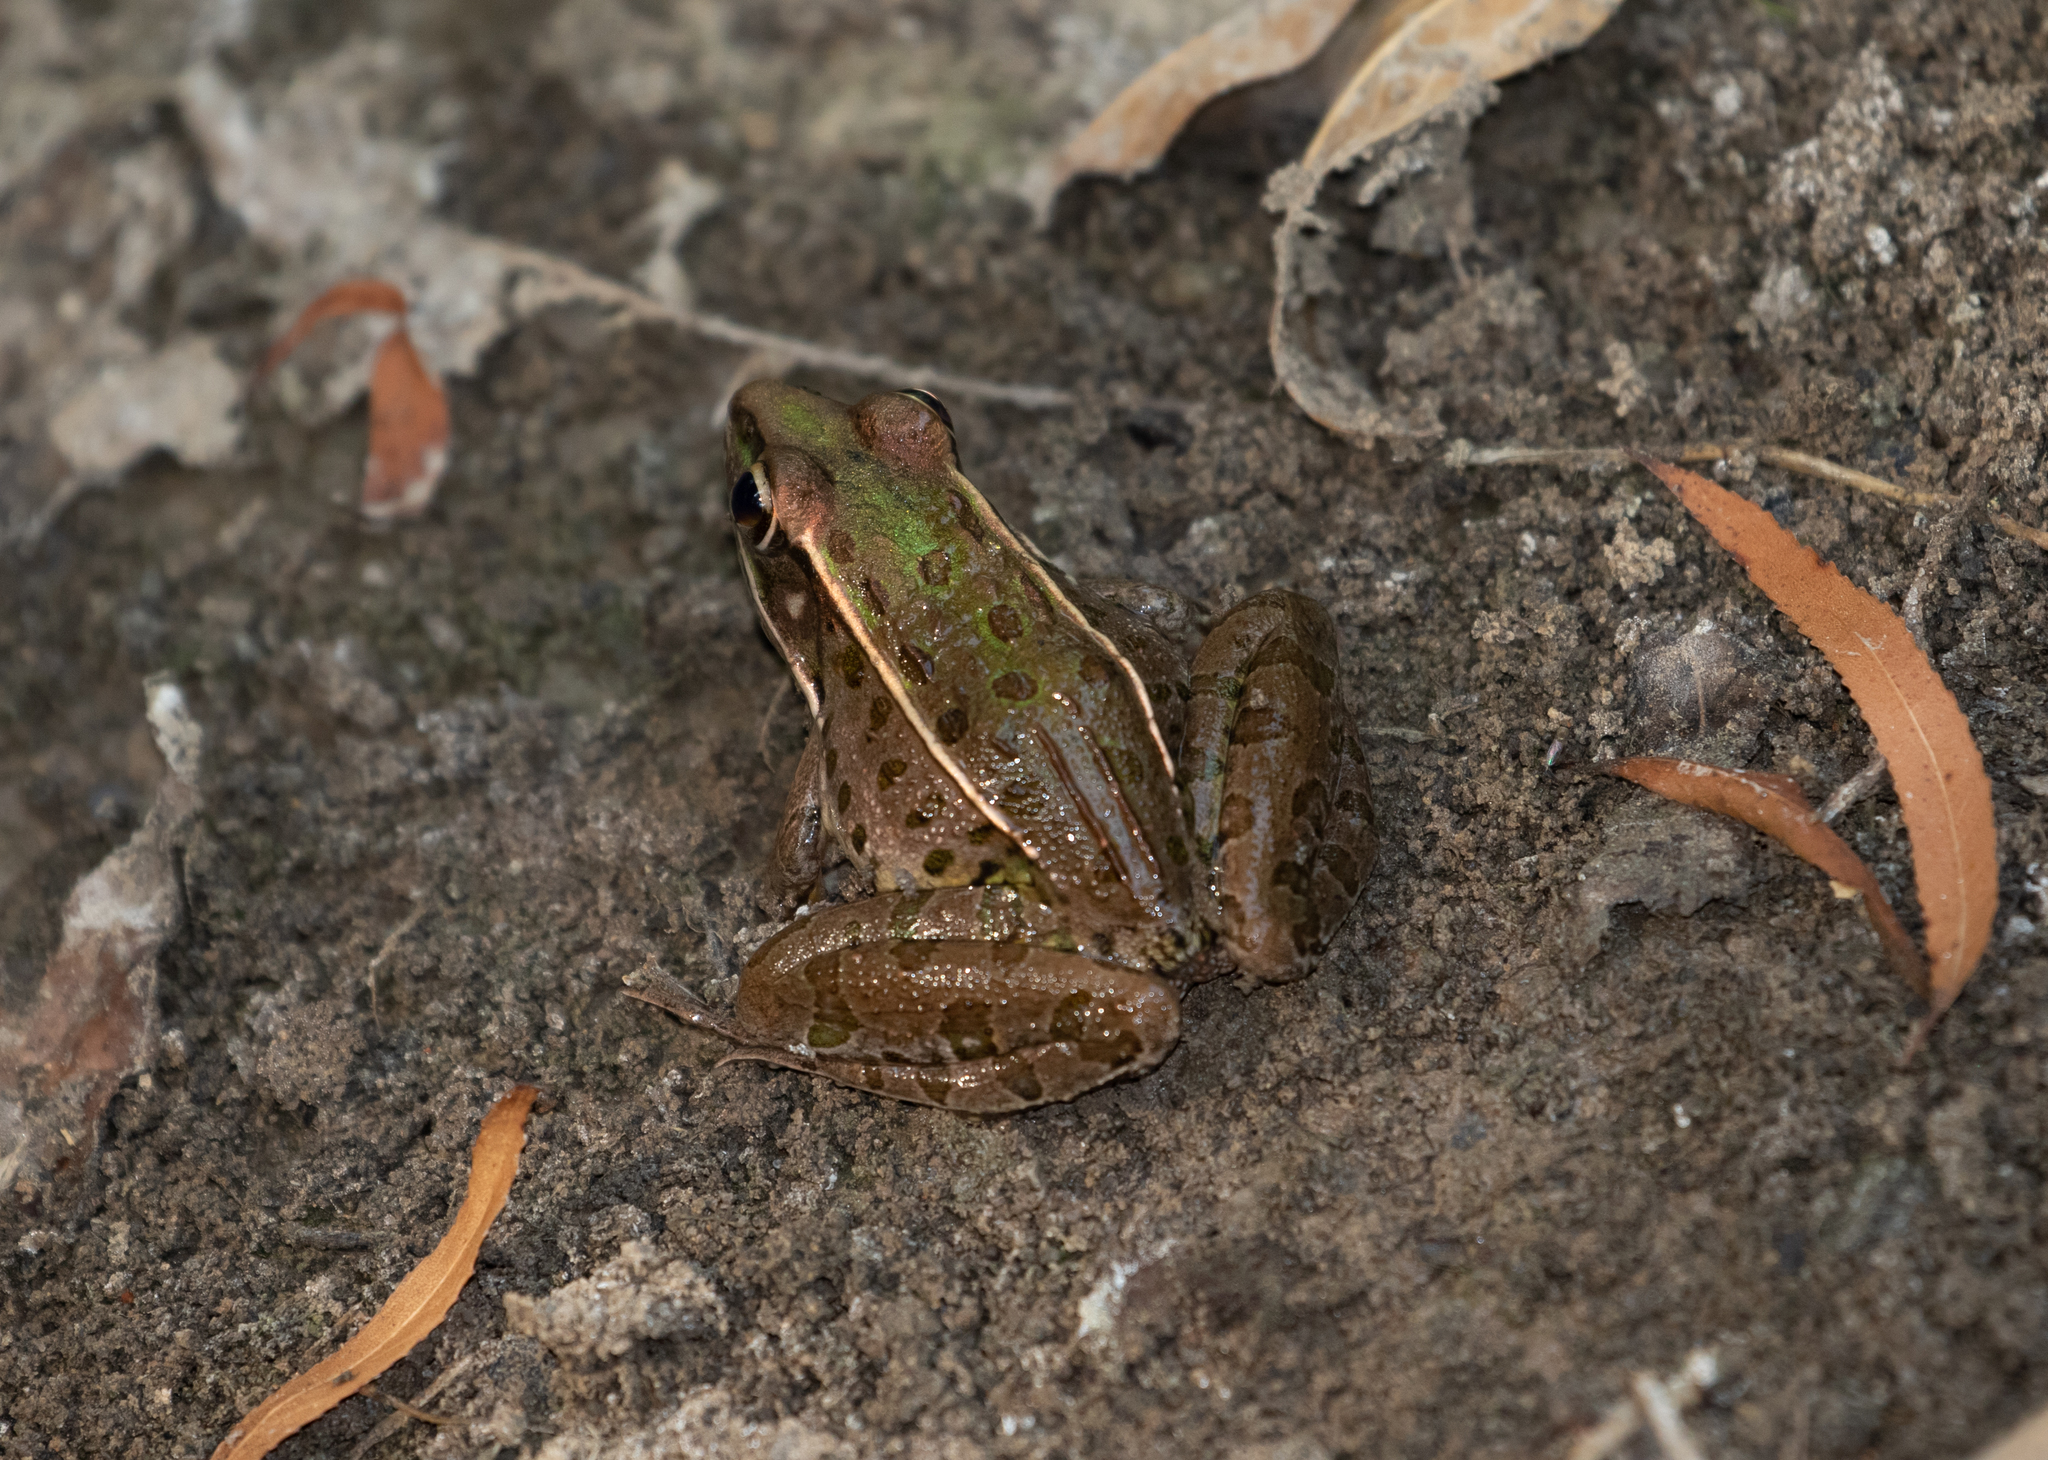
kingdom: Animalia
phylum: Chordata
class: Amphibia
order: Anura
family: Ranidae
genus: Lithobates
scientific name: Lithobates sphenocephalus
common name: Southern leopard frog
